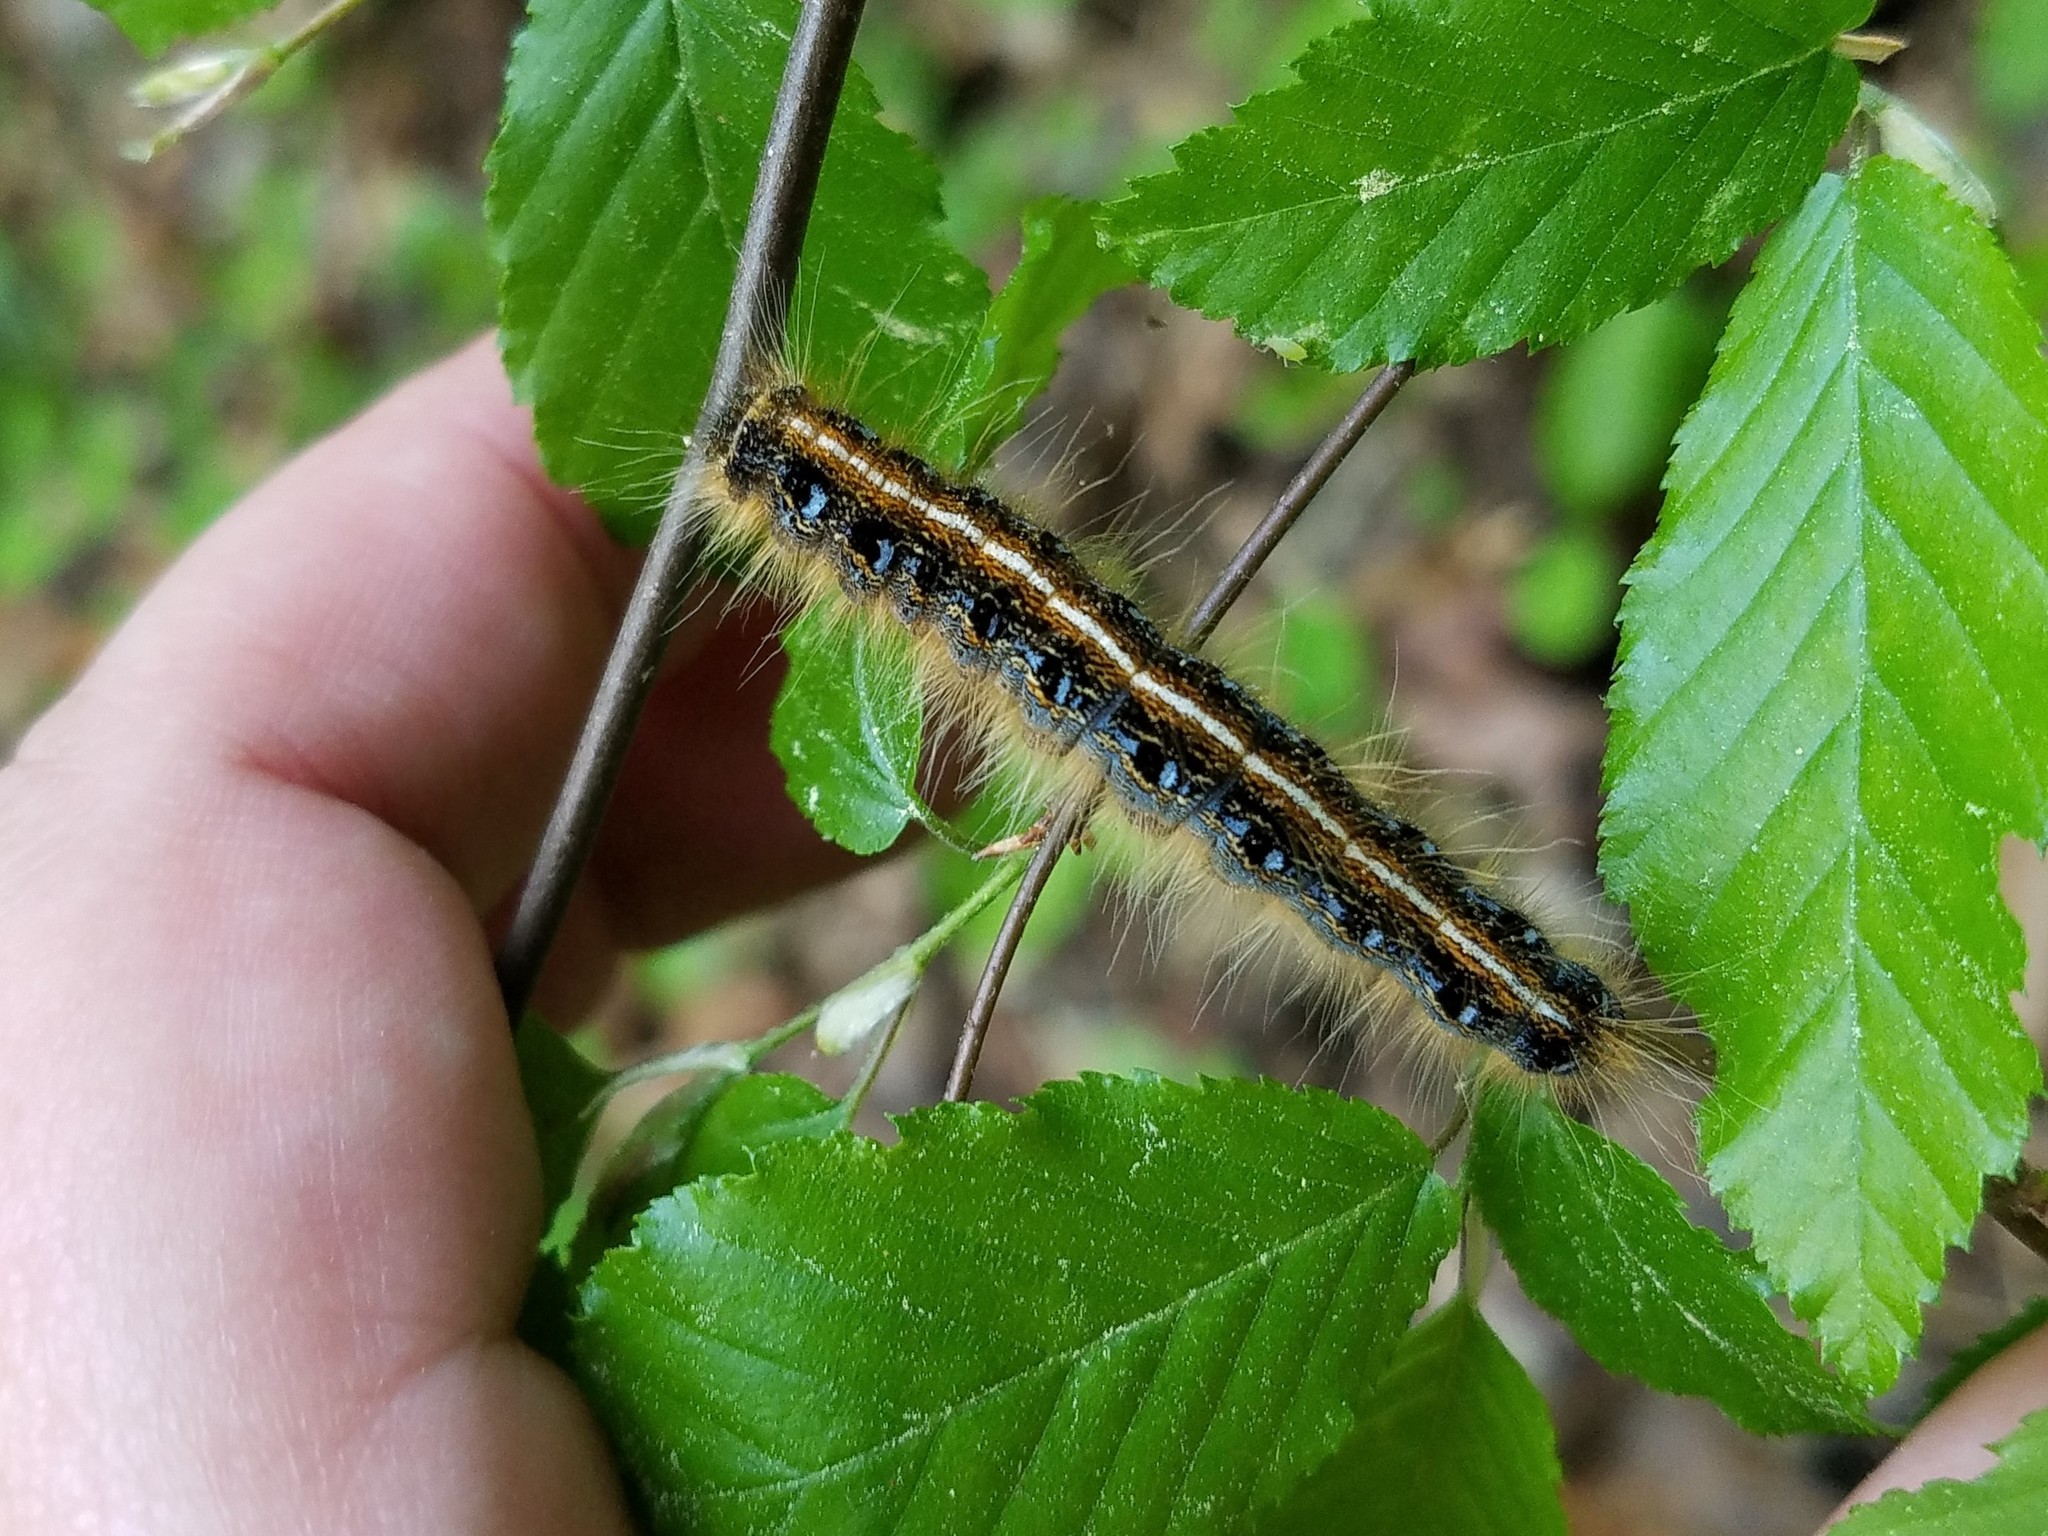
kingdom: Animalia
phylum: Arthropoda
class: Insecta
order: Lepidoptera
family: Lasiocampidae
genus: Malacosoma
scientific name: Malacosoma americana
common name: Eastern tent caterpillar moth
